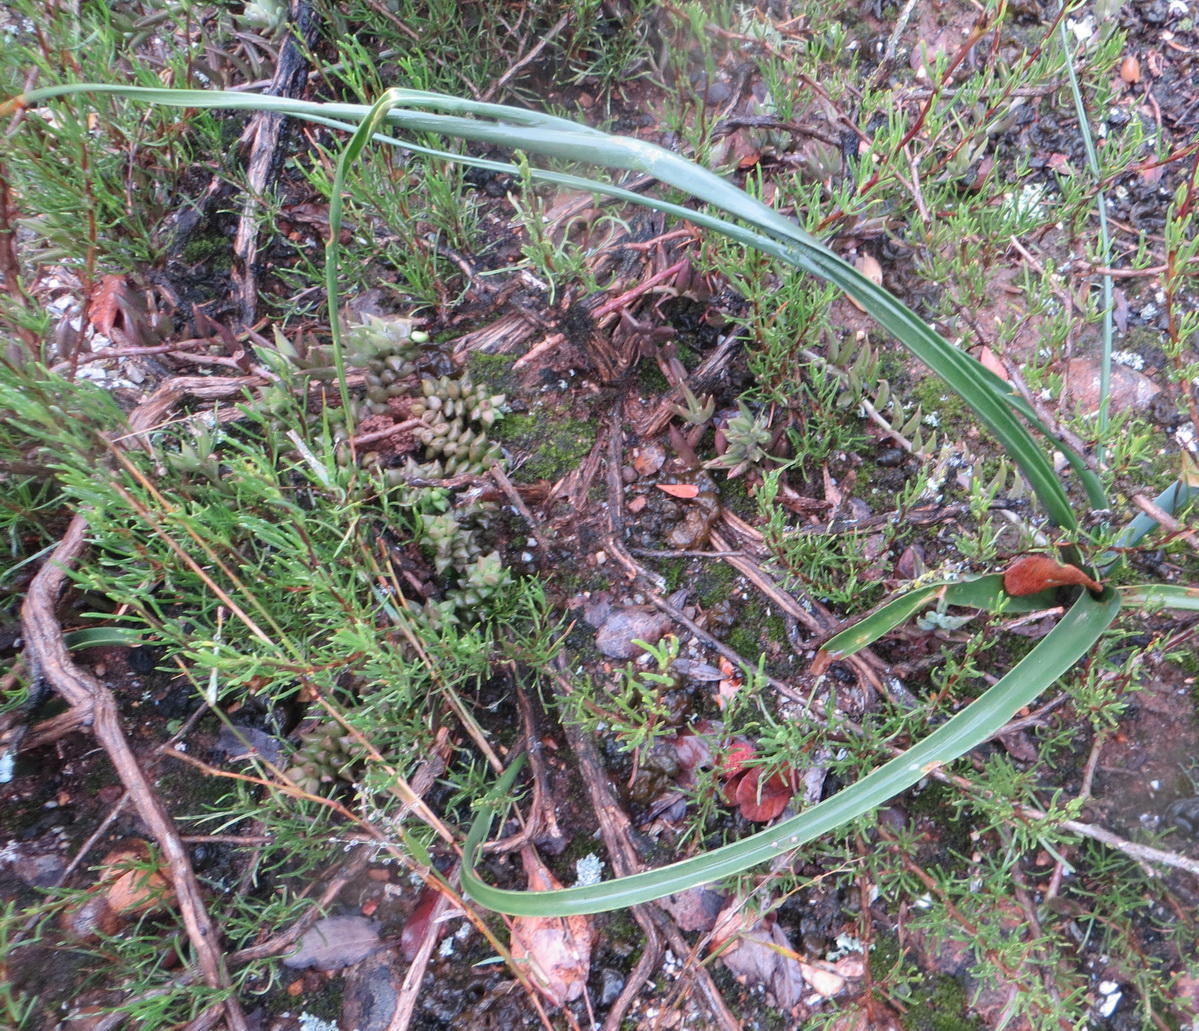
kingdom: Plantae
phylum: Tracheophyta
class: Liliopsida
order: Asparagales
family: Asparagaceae
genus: Albuca
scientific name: Albuca setosa
